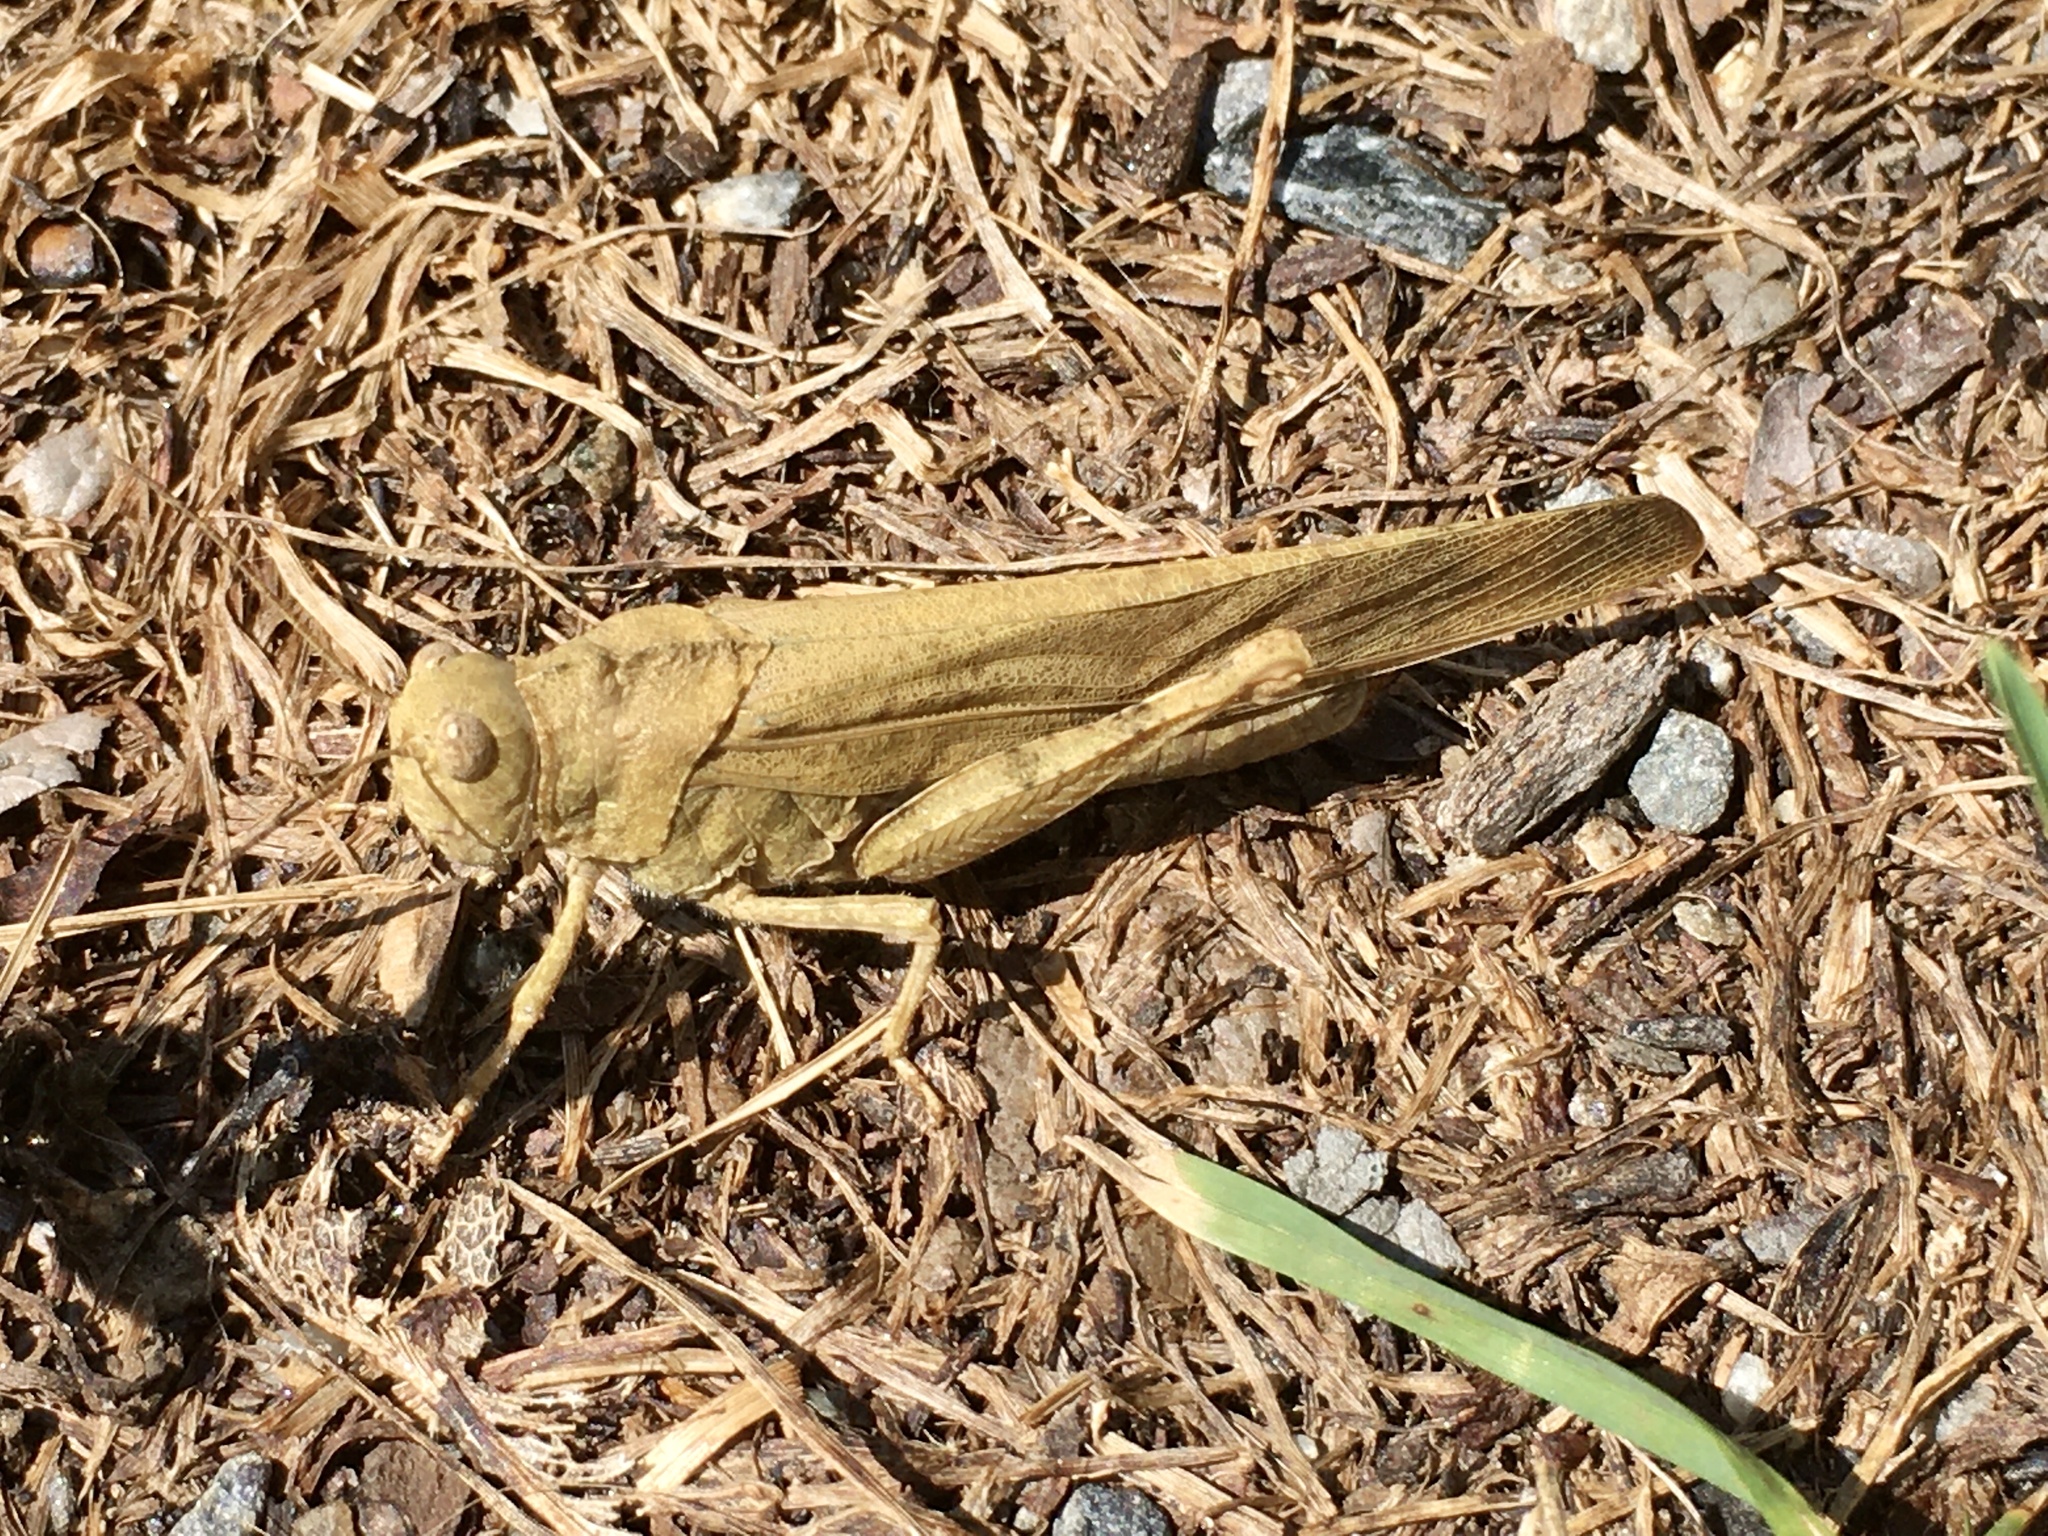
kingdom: Animalia
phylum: Arthropoda
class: Insecta
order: Orthoptera
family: Acrididae
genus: Dissosteira
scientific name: Dissosteira carolina
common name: Carolina grasshopper
